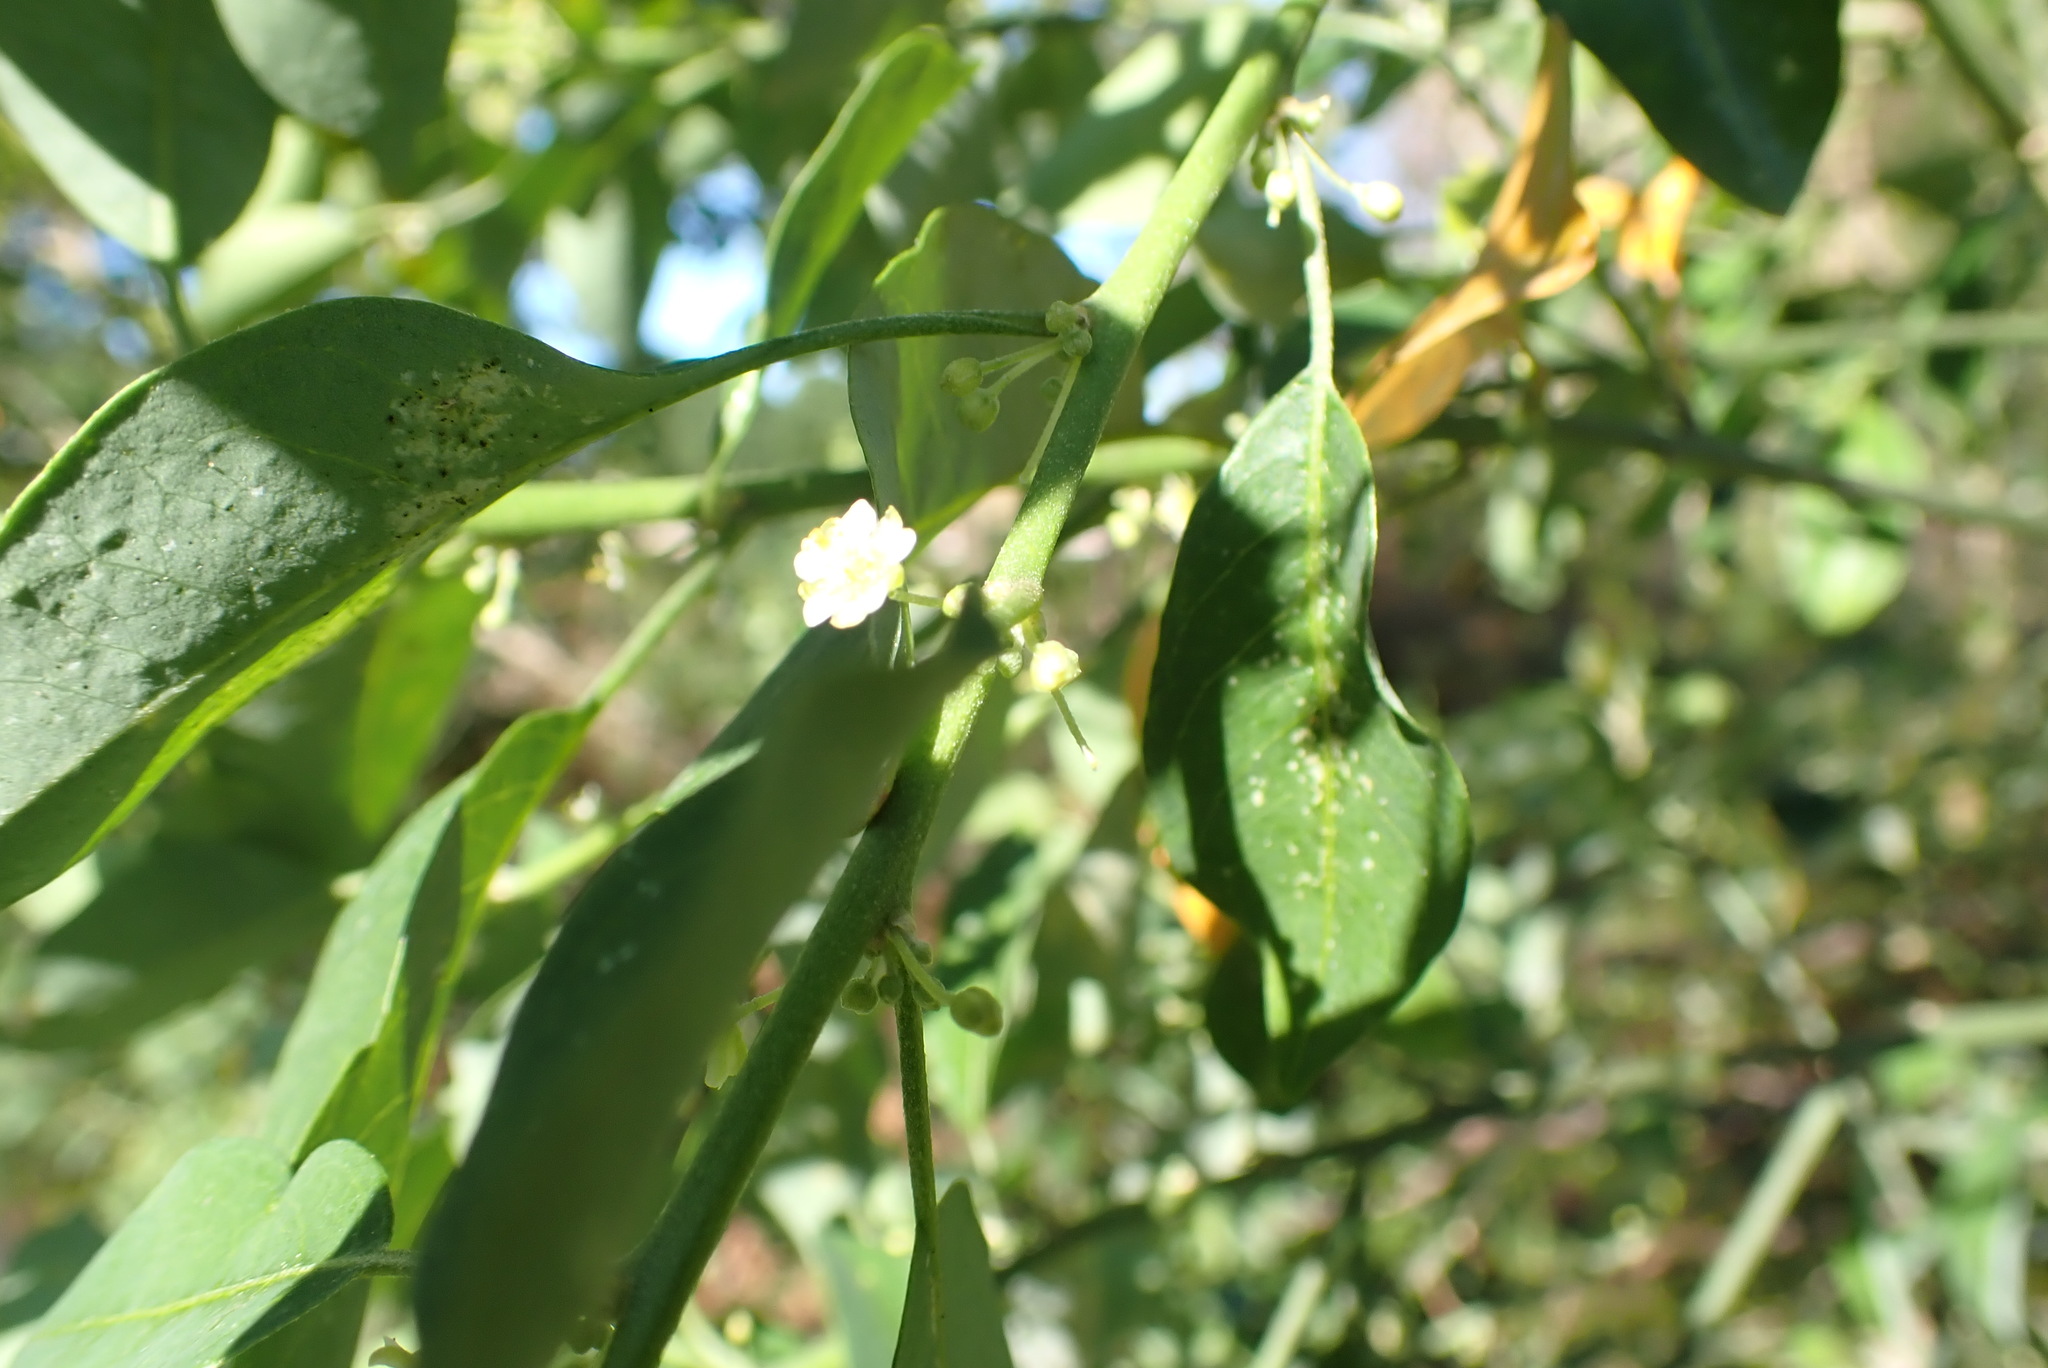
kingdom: Plantae
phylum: Tracheophyta
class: Magnoliopsida
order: Malpighiales
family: Peraceae
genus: Clutia
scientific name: Clutia pulchella
